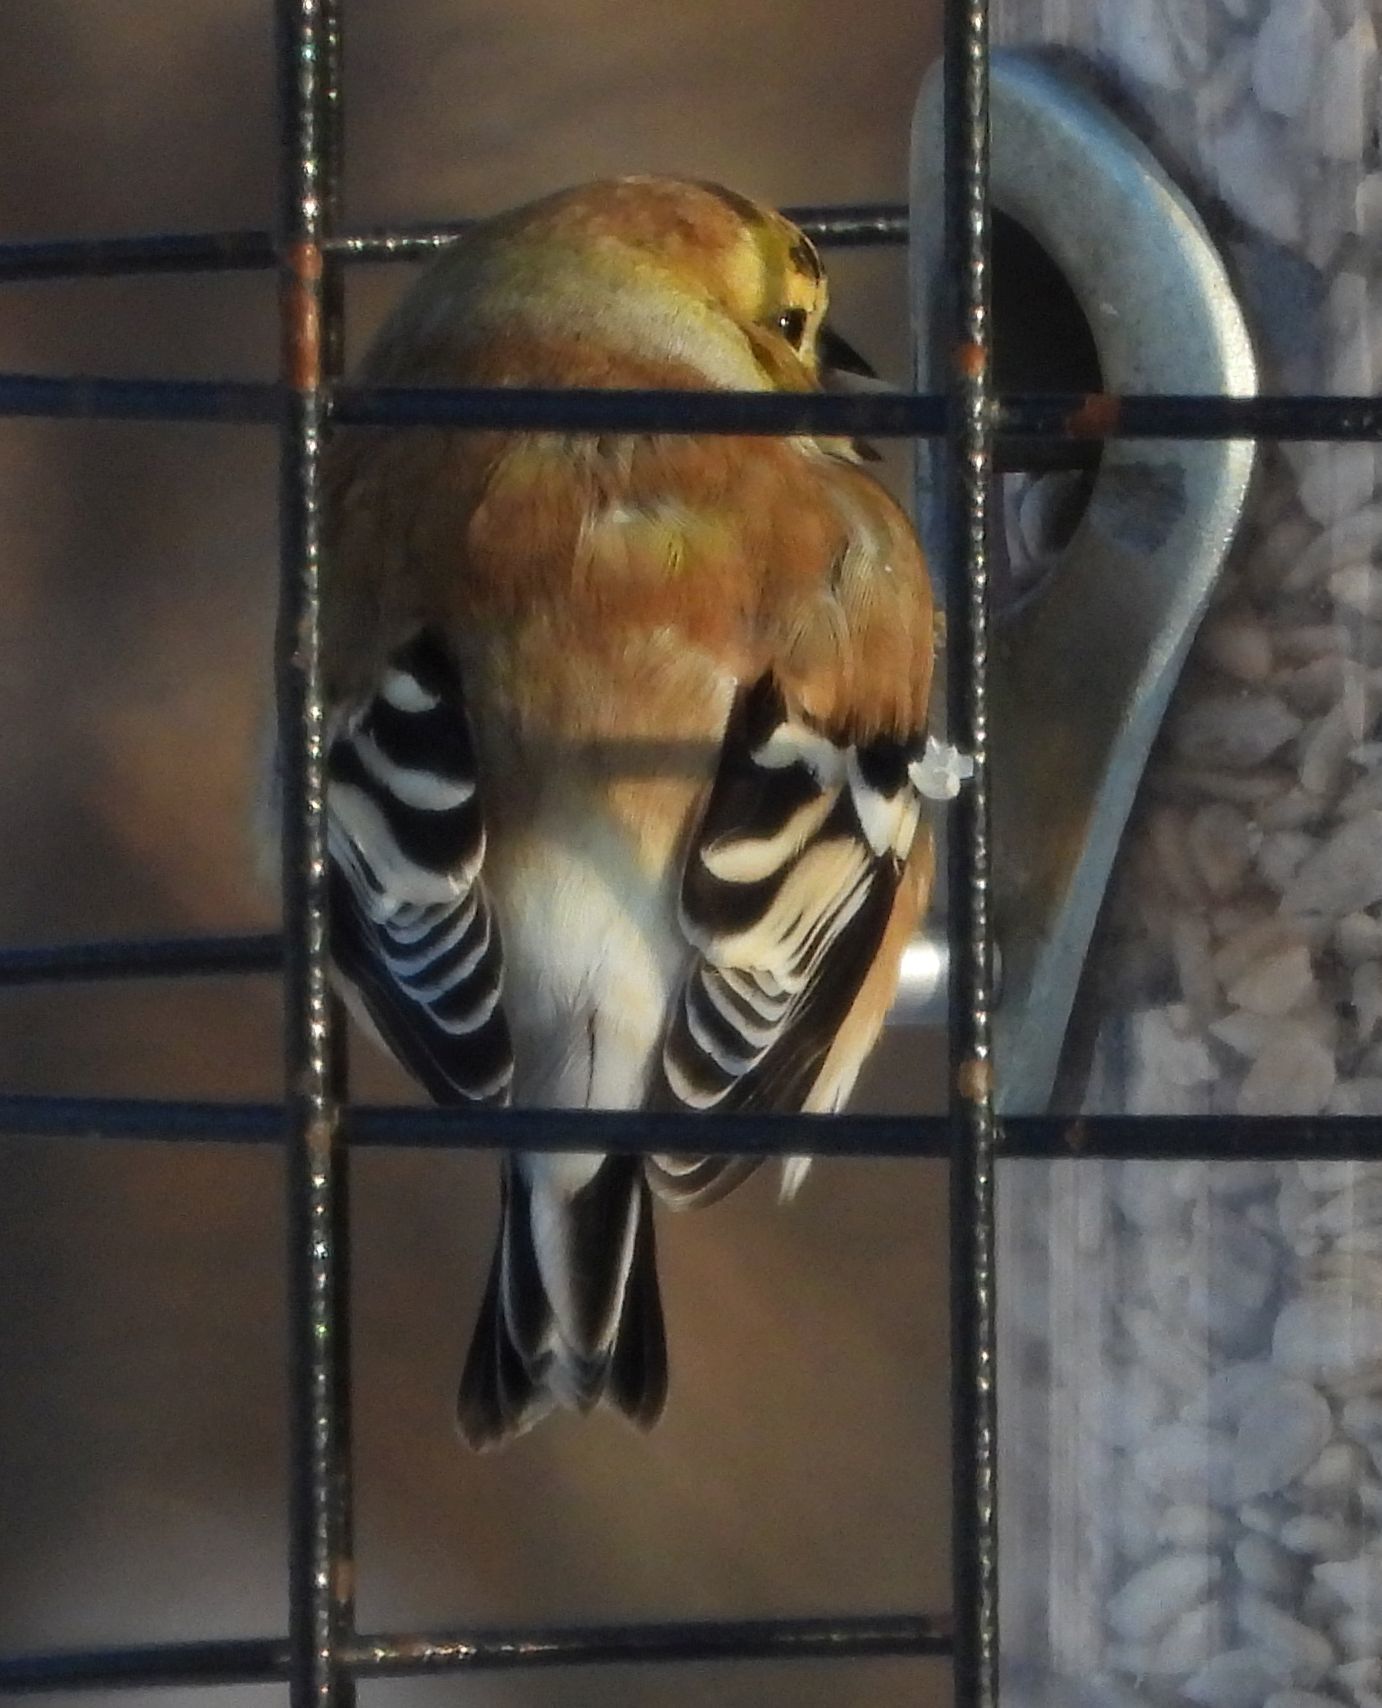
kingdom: Animalia
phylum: Chordata
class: Aves
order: Passeriformes
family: Fringillidae
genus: Spinus
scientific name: Spinus tristis
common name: American goldfinch
